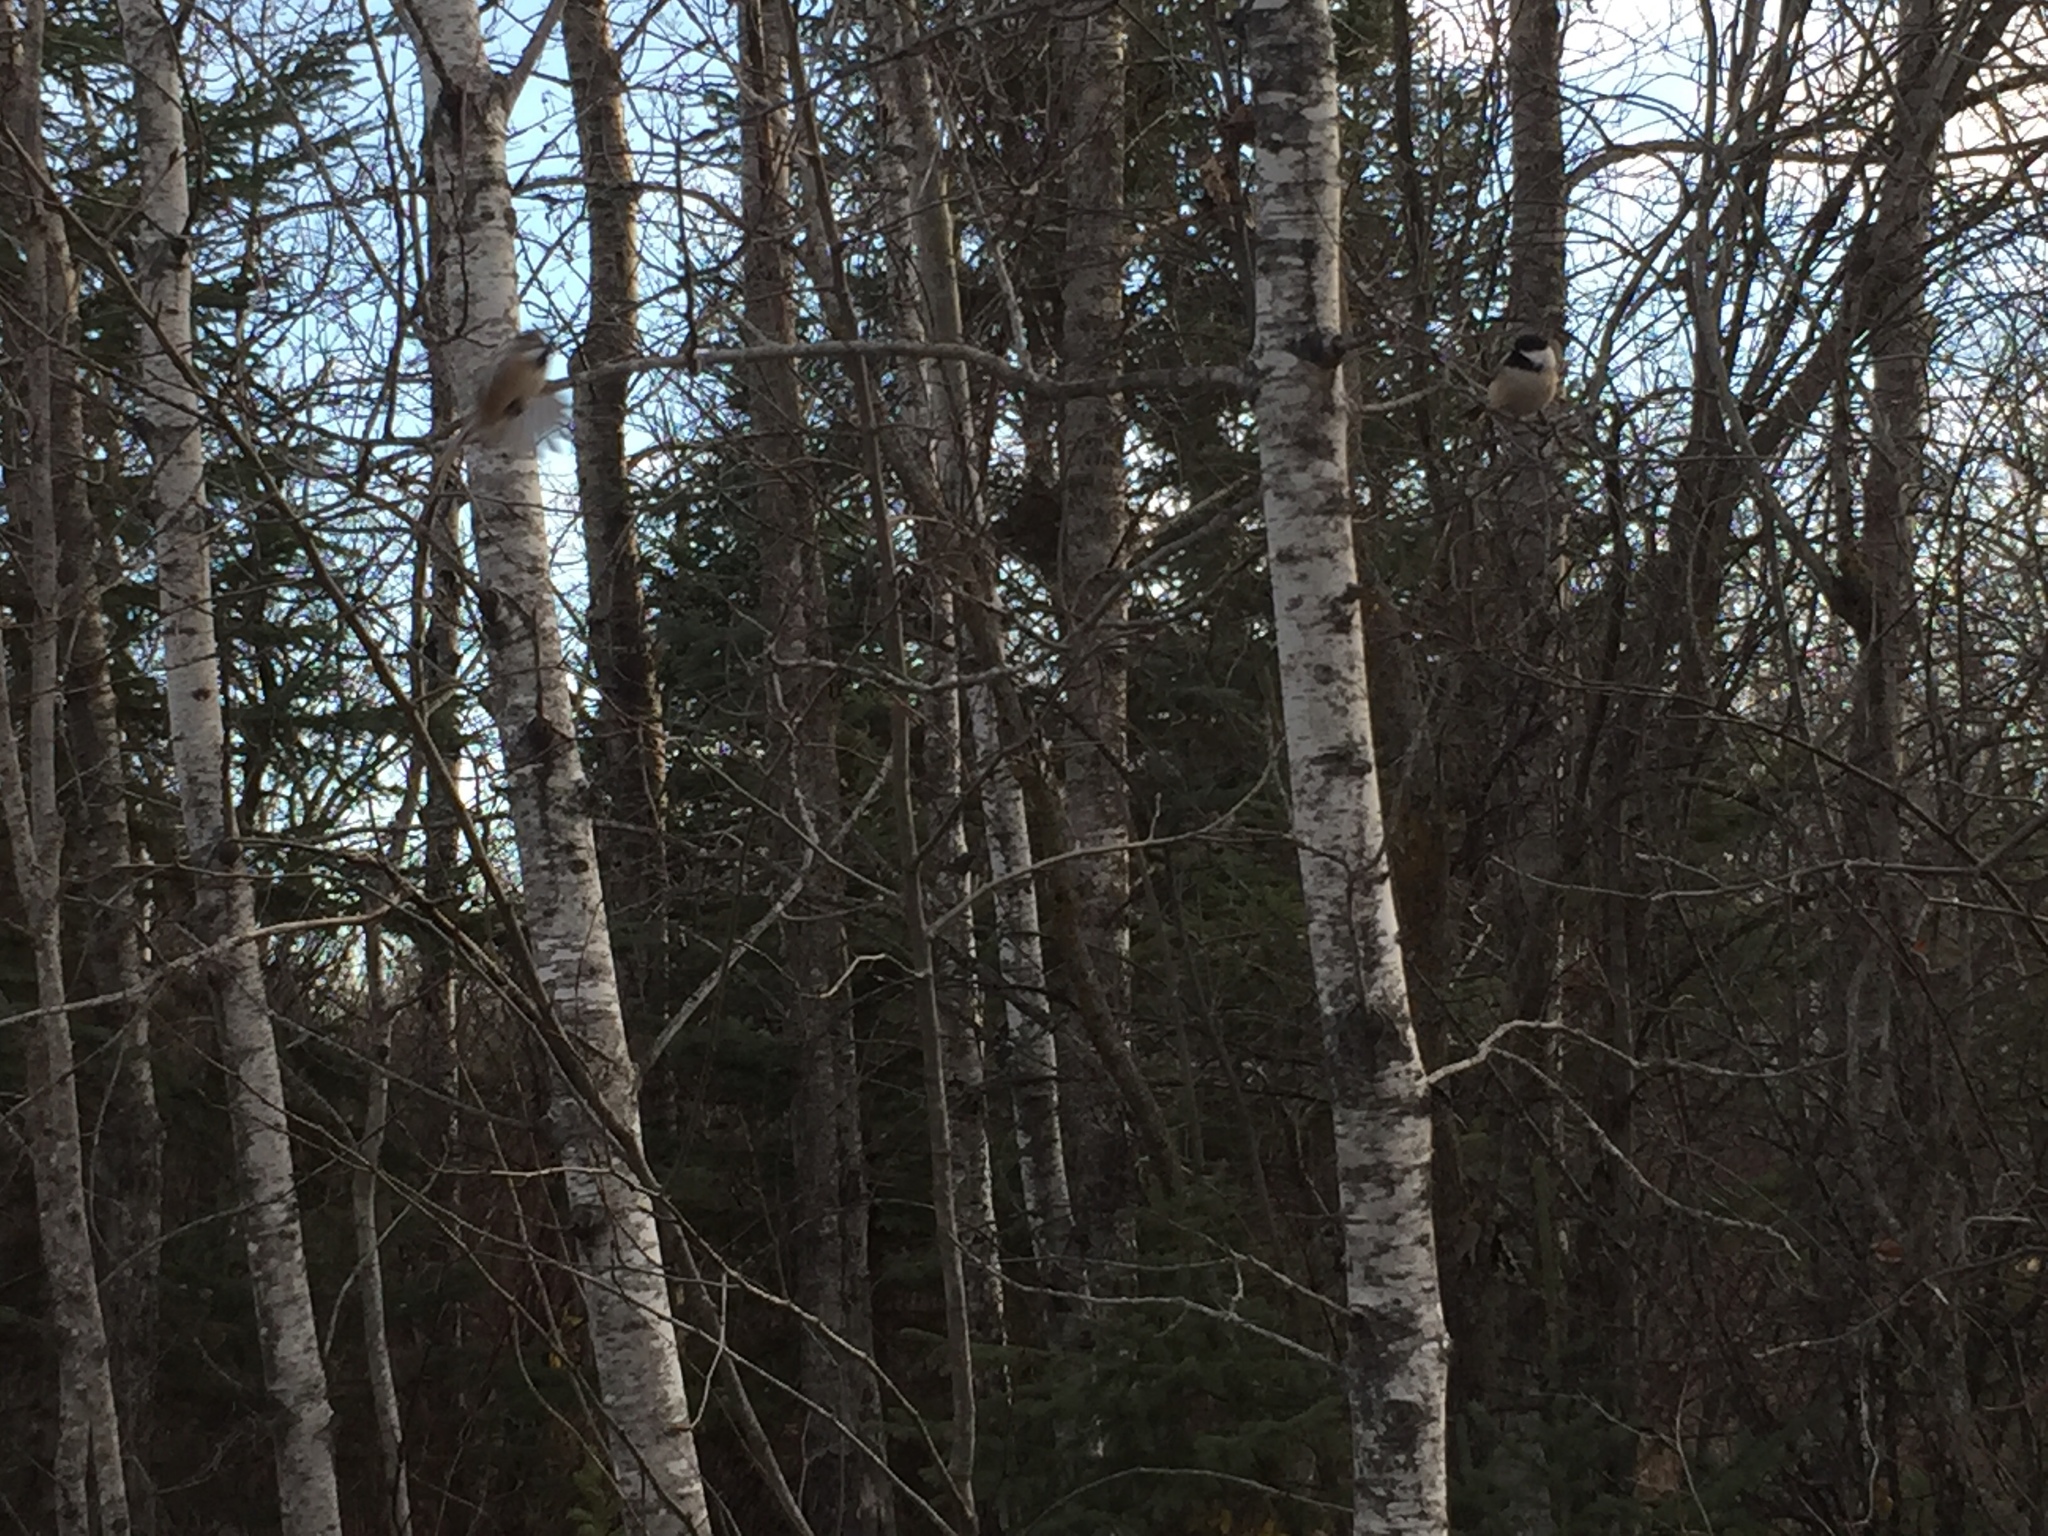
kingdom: Plantae
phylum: Tracheophyta
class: Magnoliopsida
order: Malpighiales
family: Salicaceae
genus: Populus
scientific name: Populus tremuloides
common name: Quaking aspen
